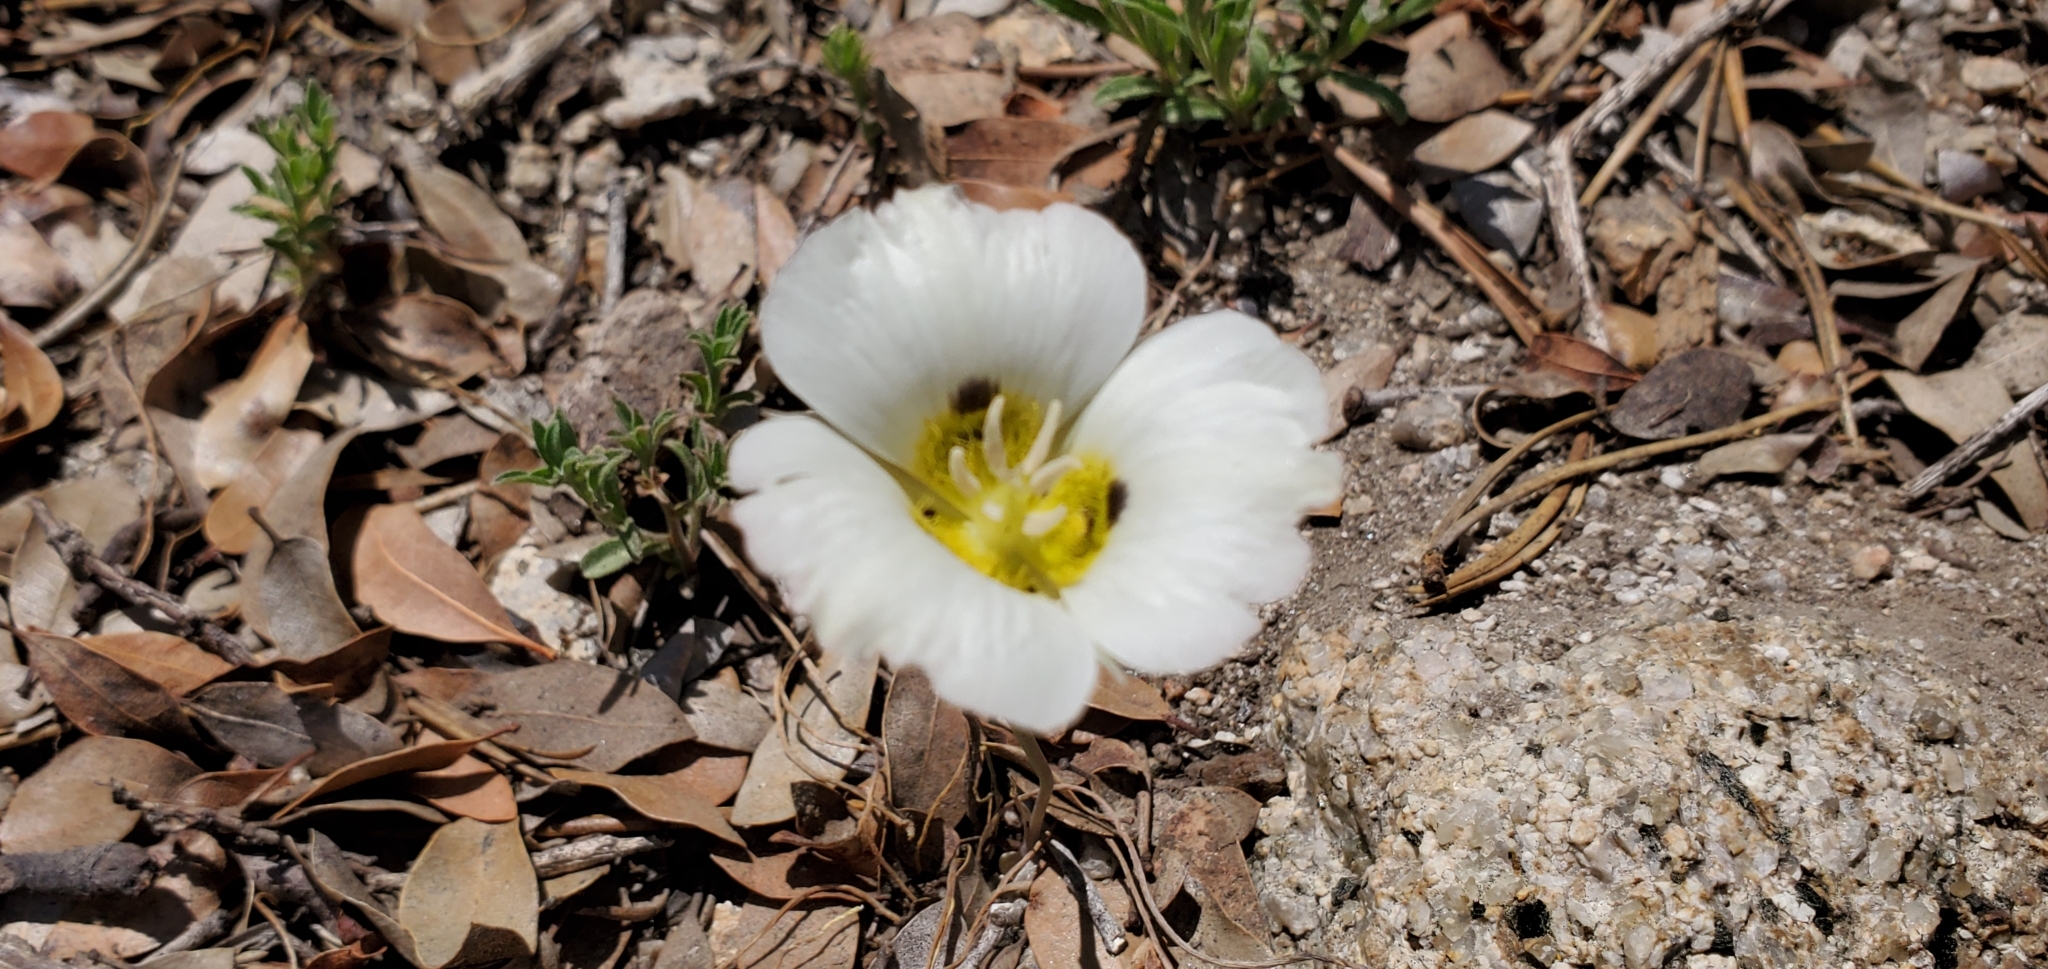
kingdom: Plantae
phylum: Tracheophyta
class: Liliopsida
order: Liliales
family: Liliaceae
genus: Calochortus
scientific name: Calochortus leichtlinii
